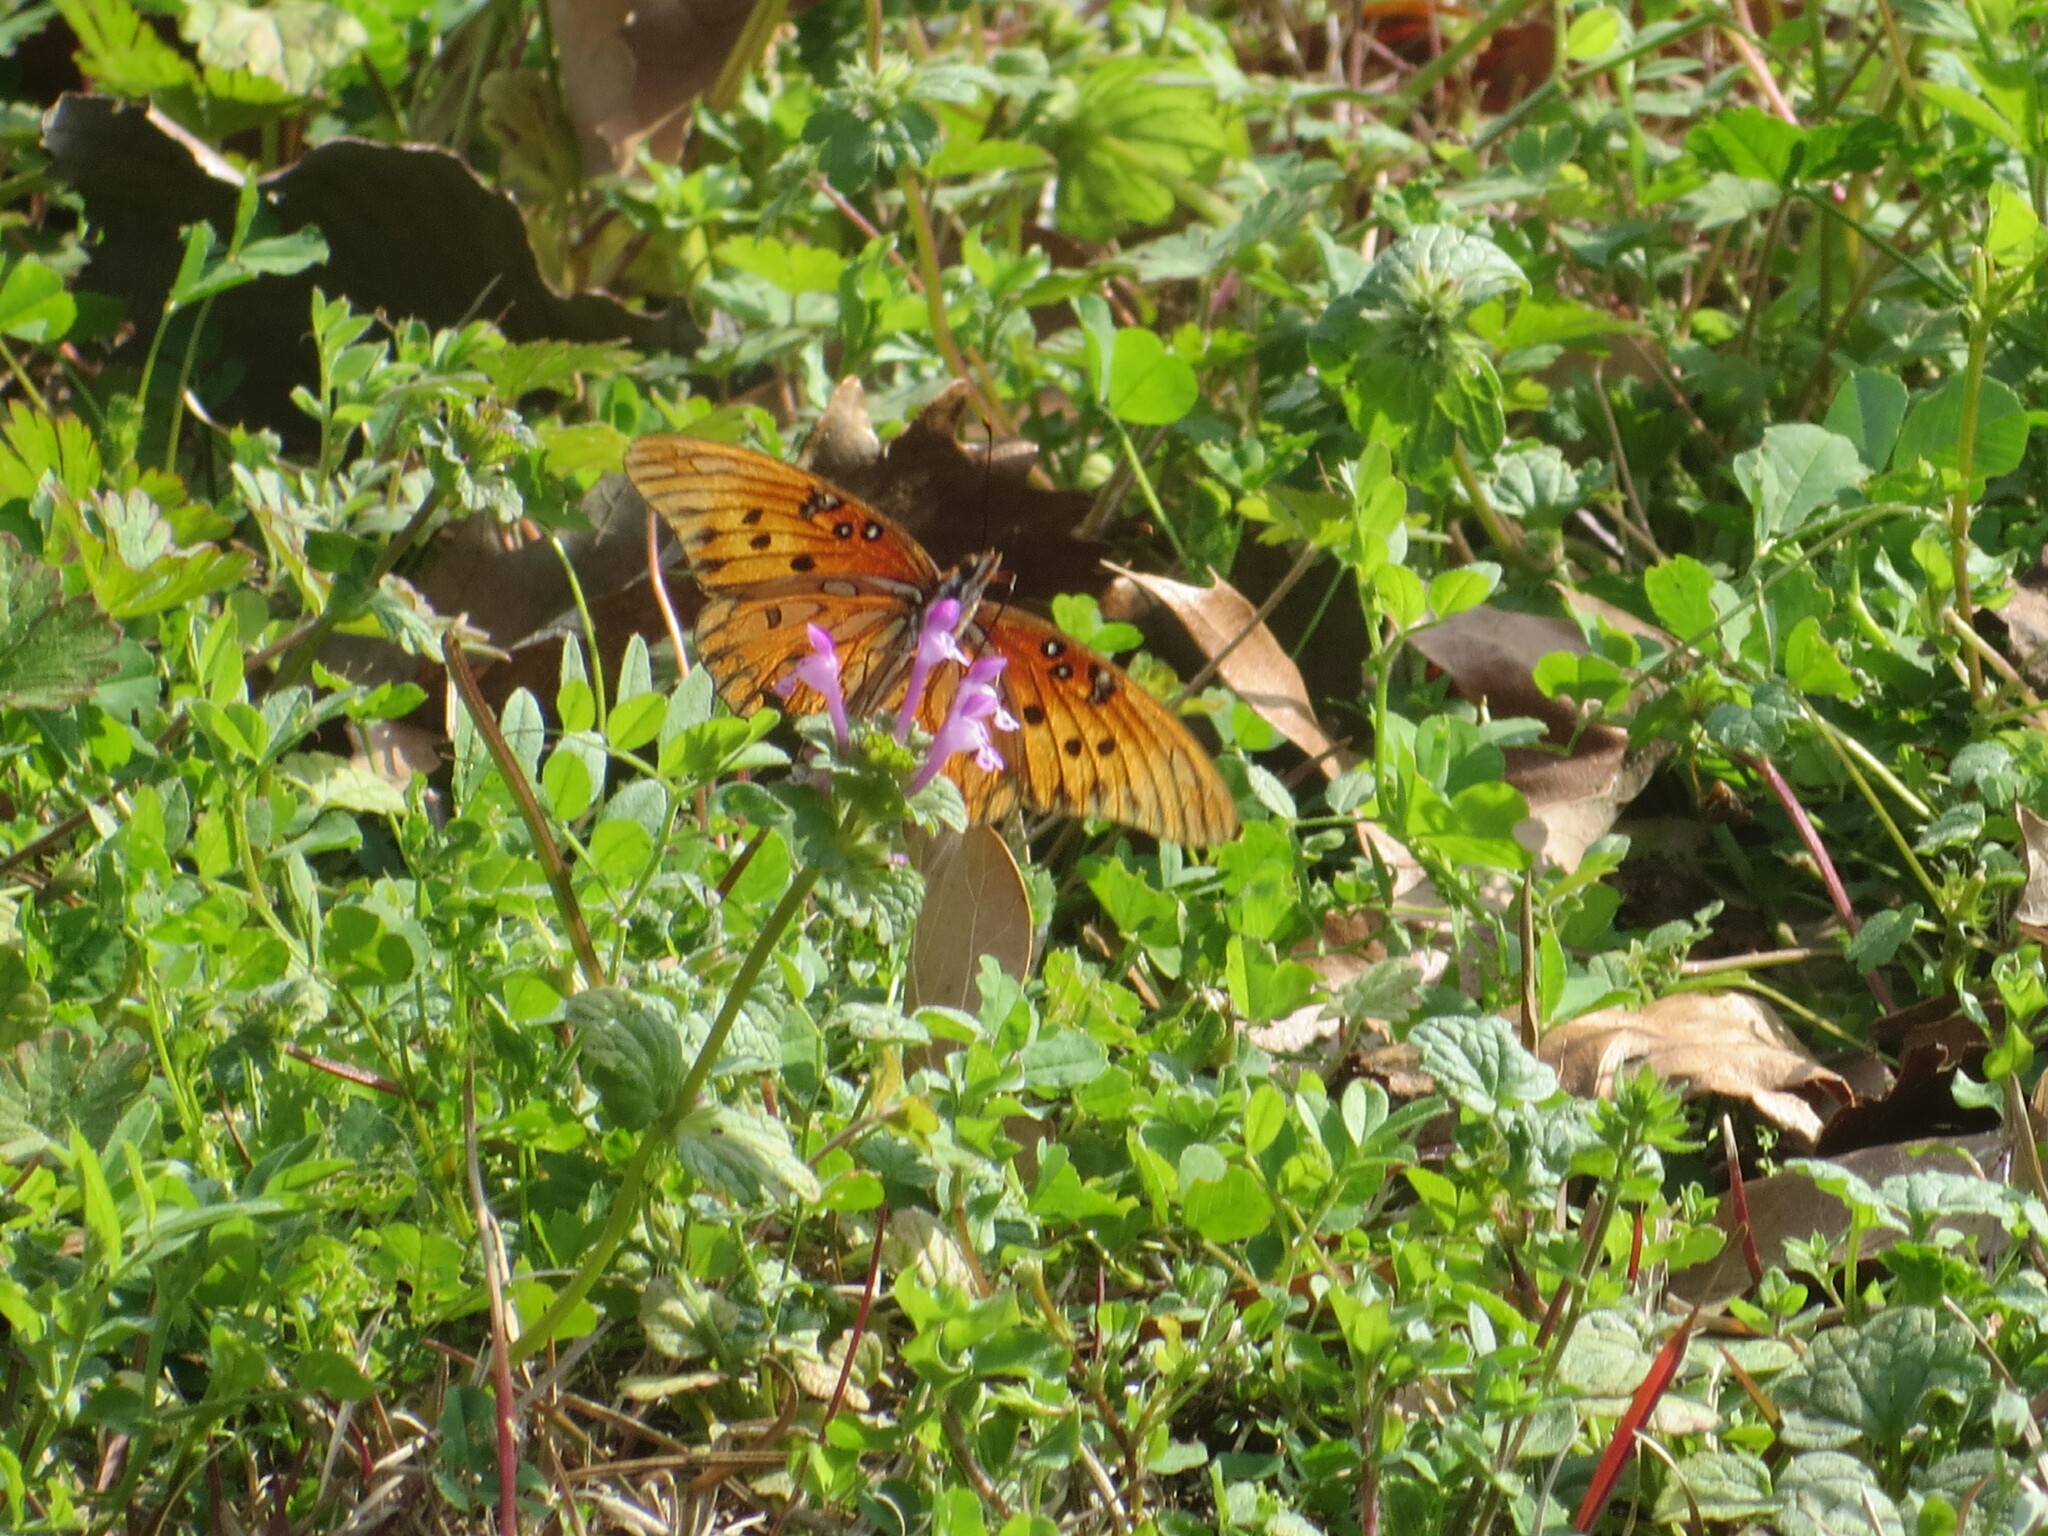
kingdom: Animalia
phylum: Arthropoda
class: Insecta
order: Lepidoptera
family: Nymphalidae
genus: Dione
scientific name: Dione vanillae
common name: Gulf fritillary
